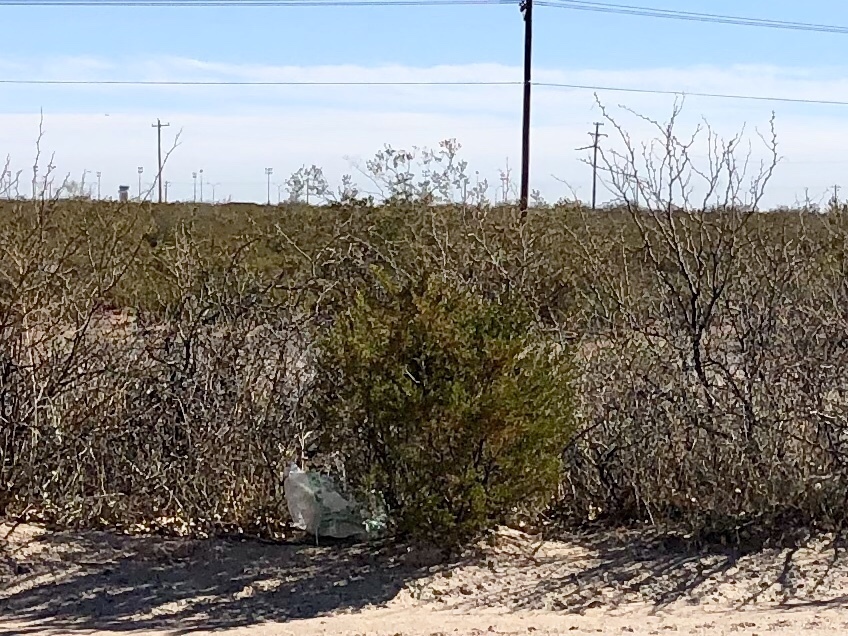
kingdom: Plantae
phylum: Tracheophyta
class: Magnoliopsida
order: Zygophyllales
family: Zygophyllaceae
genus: Larrea
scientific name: Larrea tridentata
